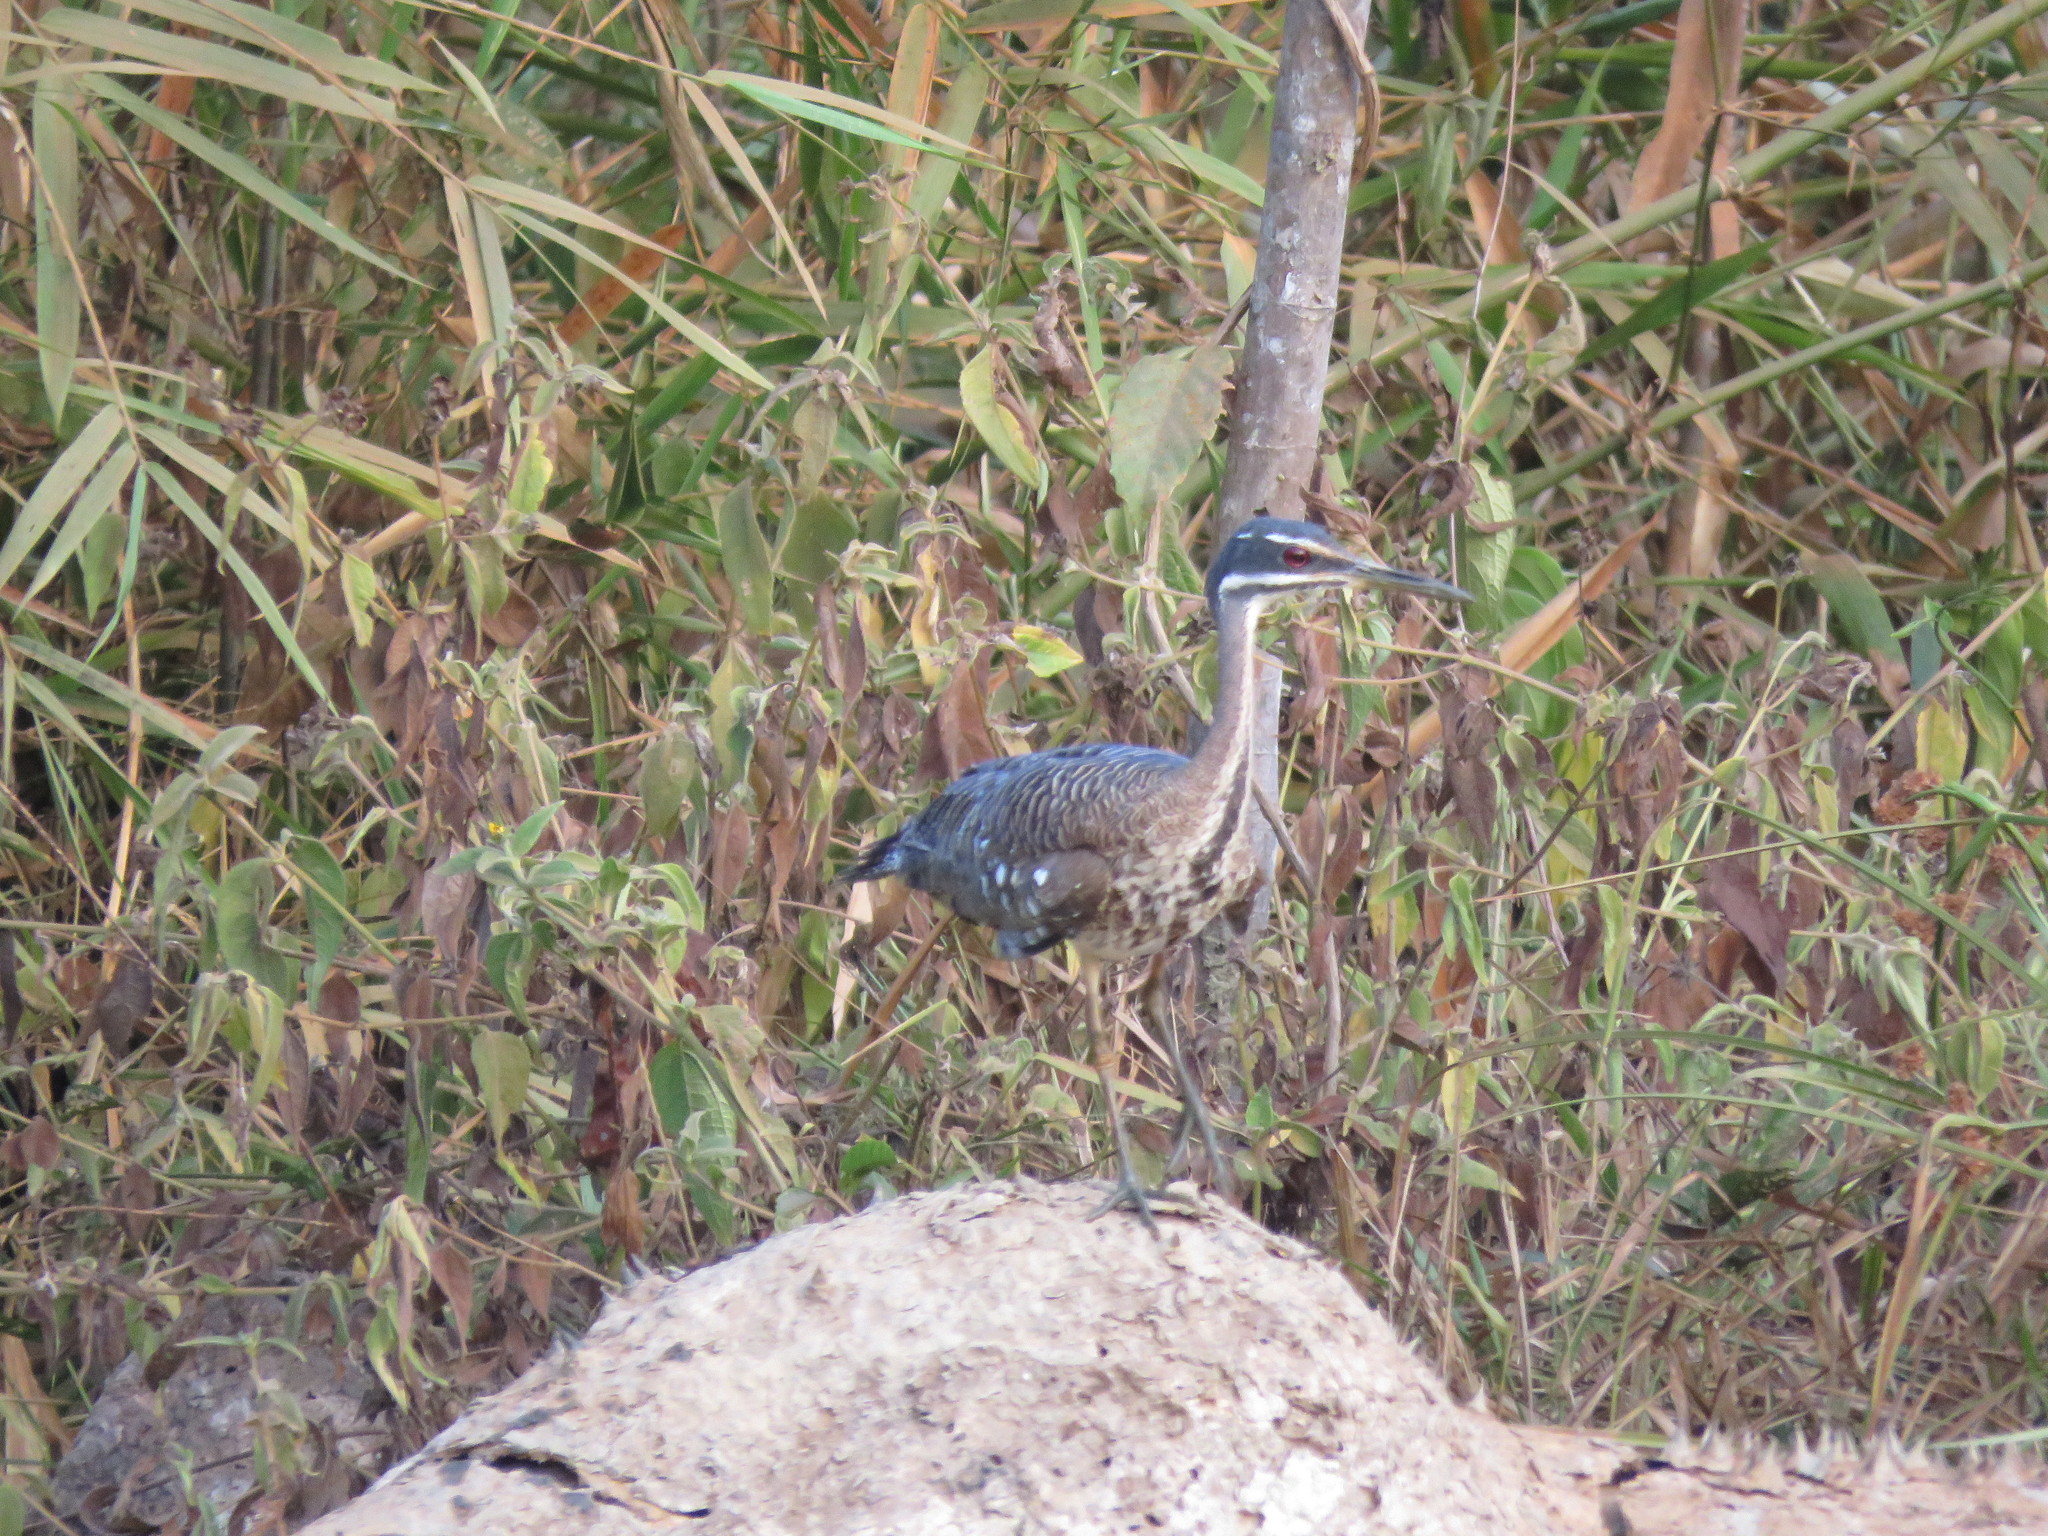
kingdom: Animalia
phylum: Chordata
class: Aves
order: Eurypygiformes
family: Eurypygidae
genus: Eurypyga
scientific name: Eurypyga helias
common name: Sunbittern
